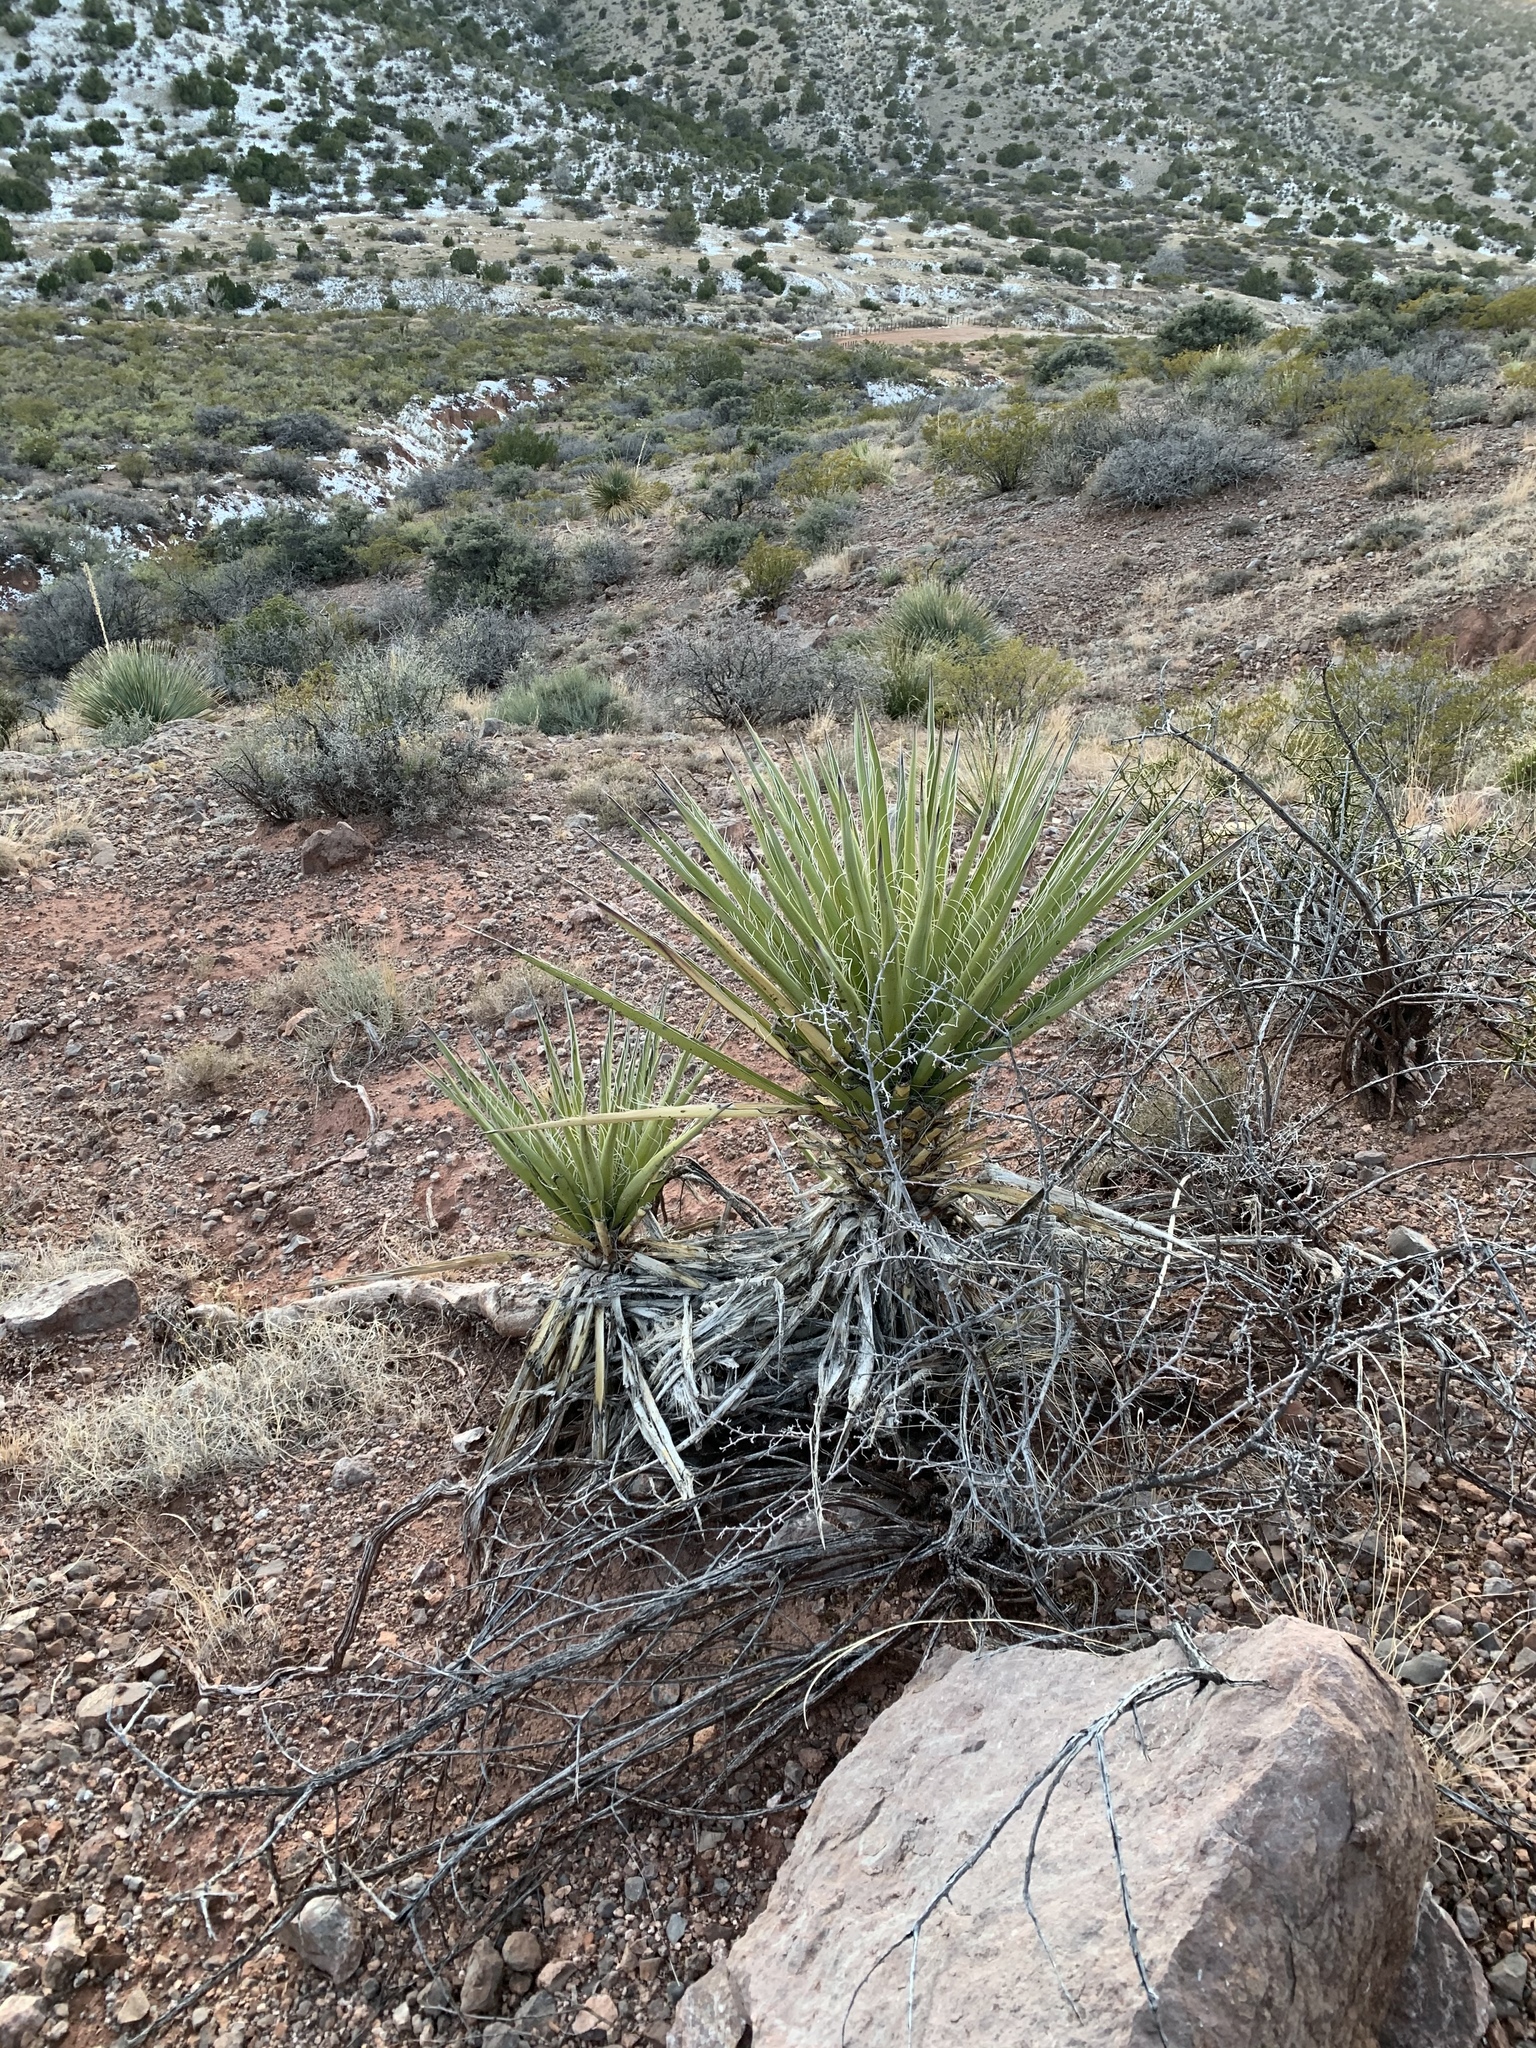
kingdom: Plantae
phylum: Tracheophyta
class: Liliopsida
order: Asparagales
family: Asparagaceae
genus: Yucca
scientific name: Yucca treculiana
